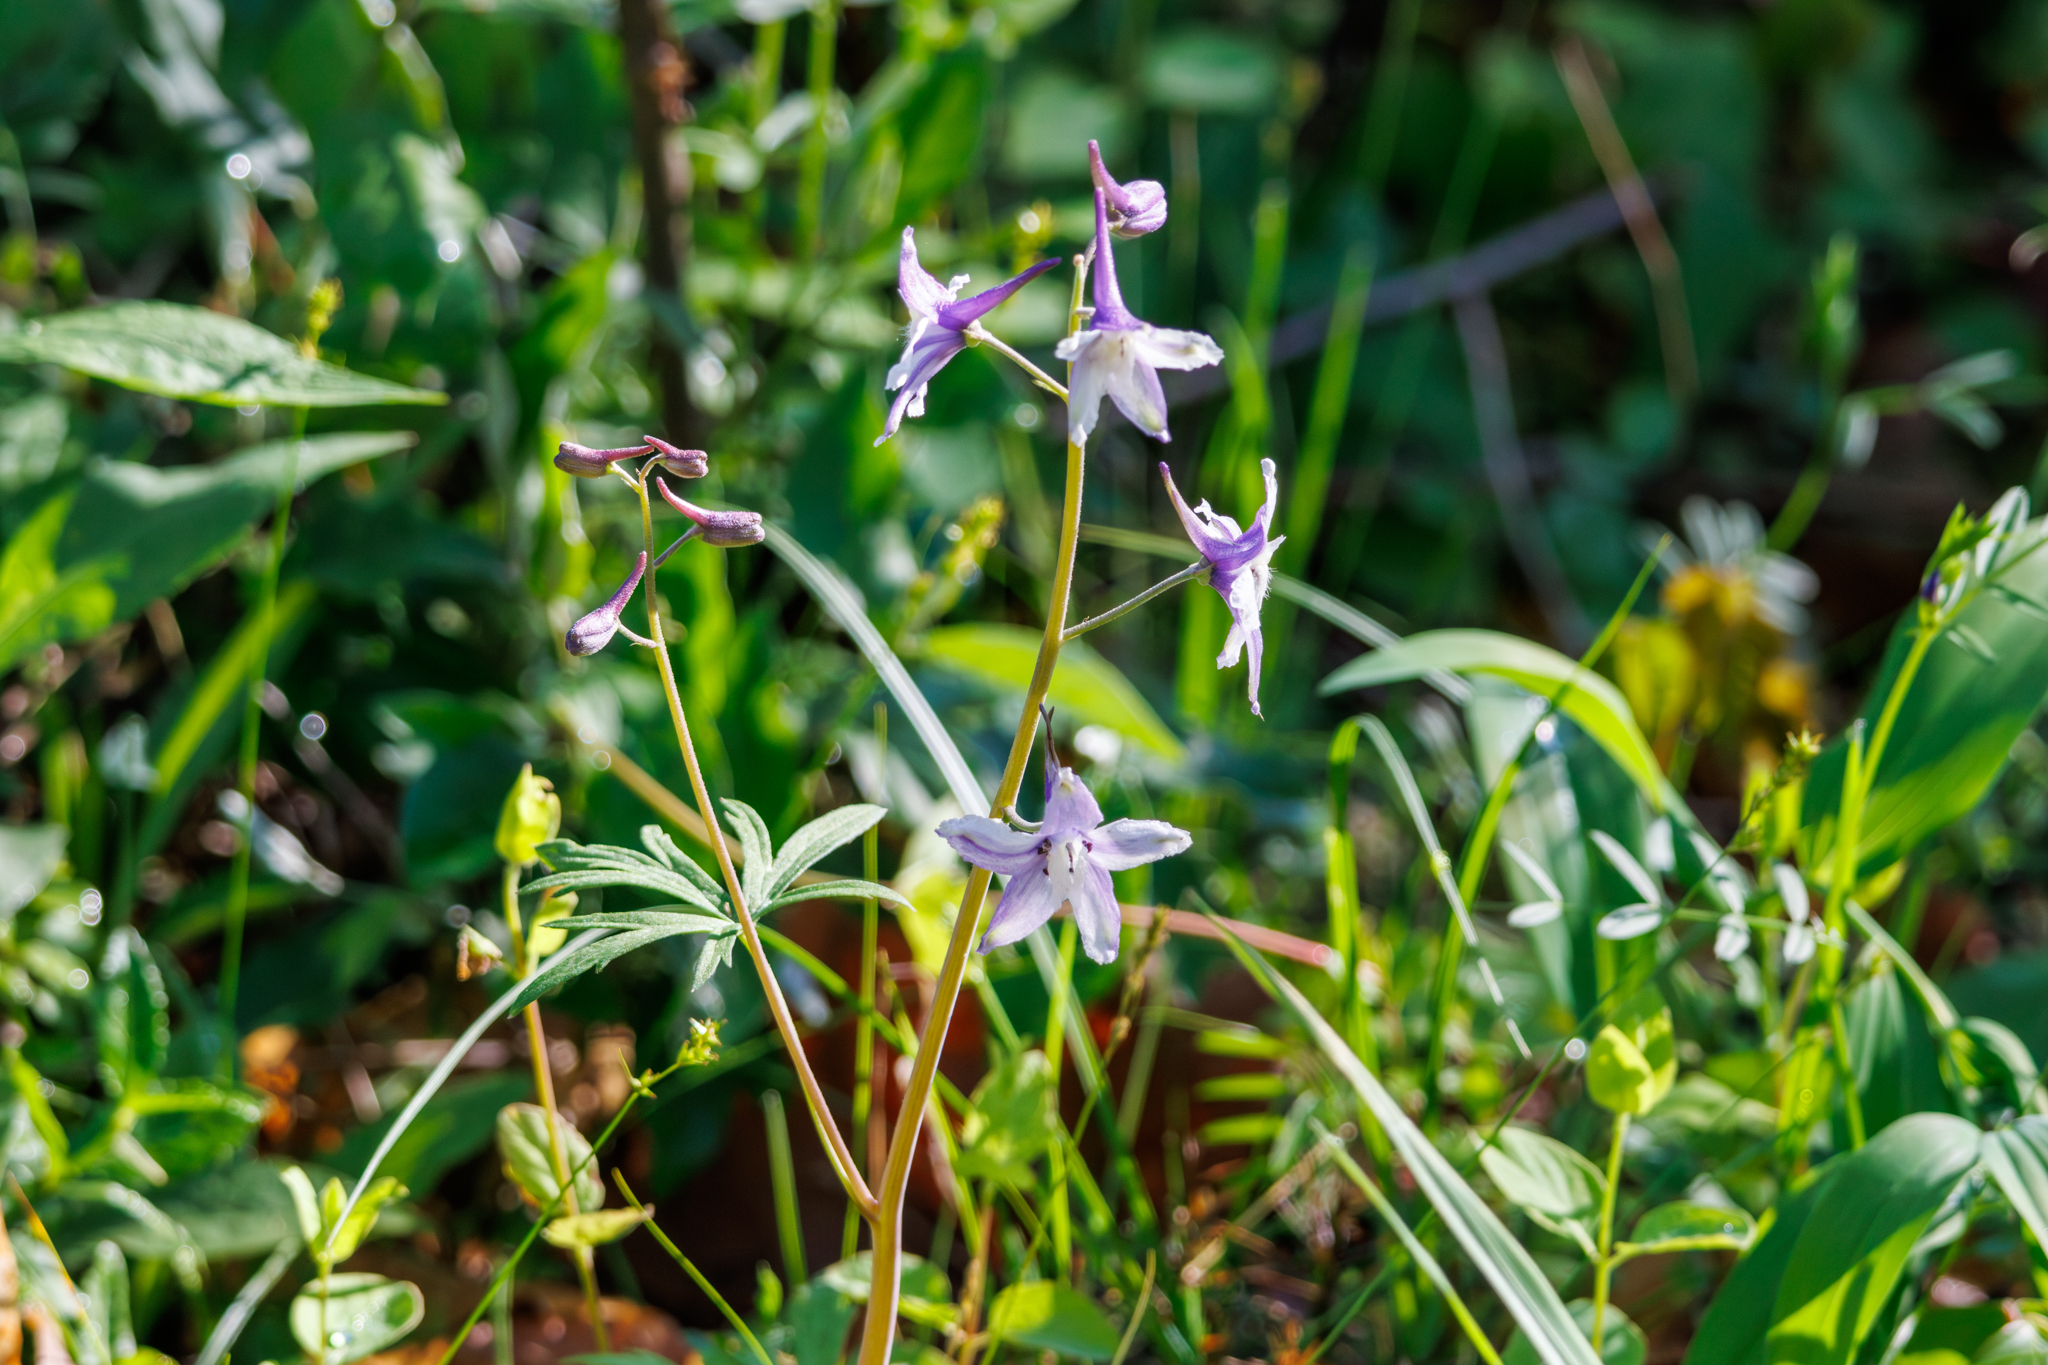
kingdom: Plantae
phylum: Tracheophyta
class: Magnoliopsida
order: Ranunculales
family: Ranunculaceae
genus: Delphinium
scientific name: Delphinium tricorne
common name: Dwarf larkspur
